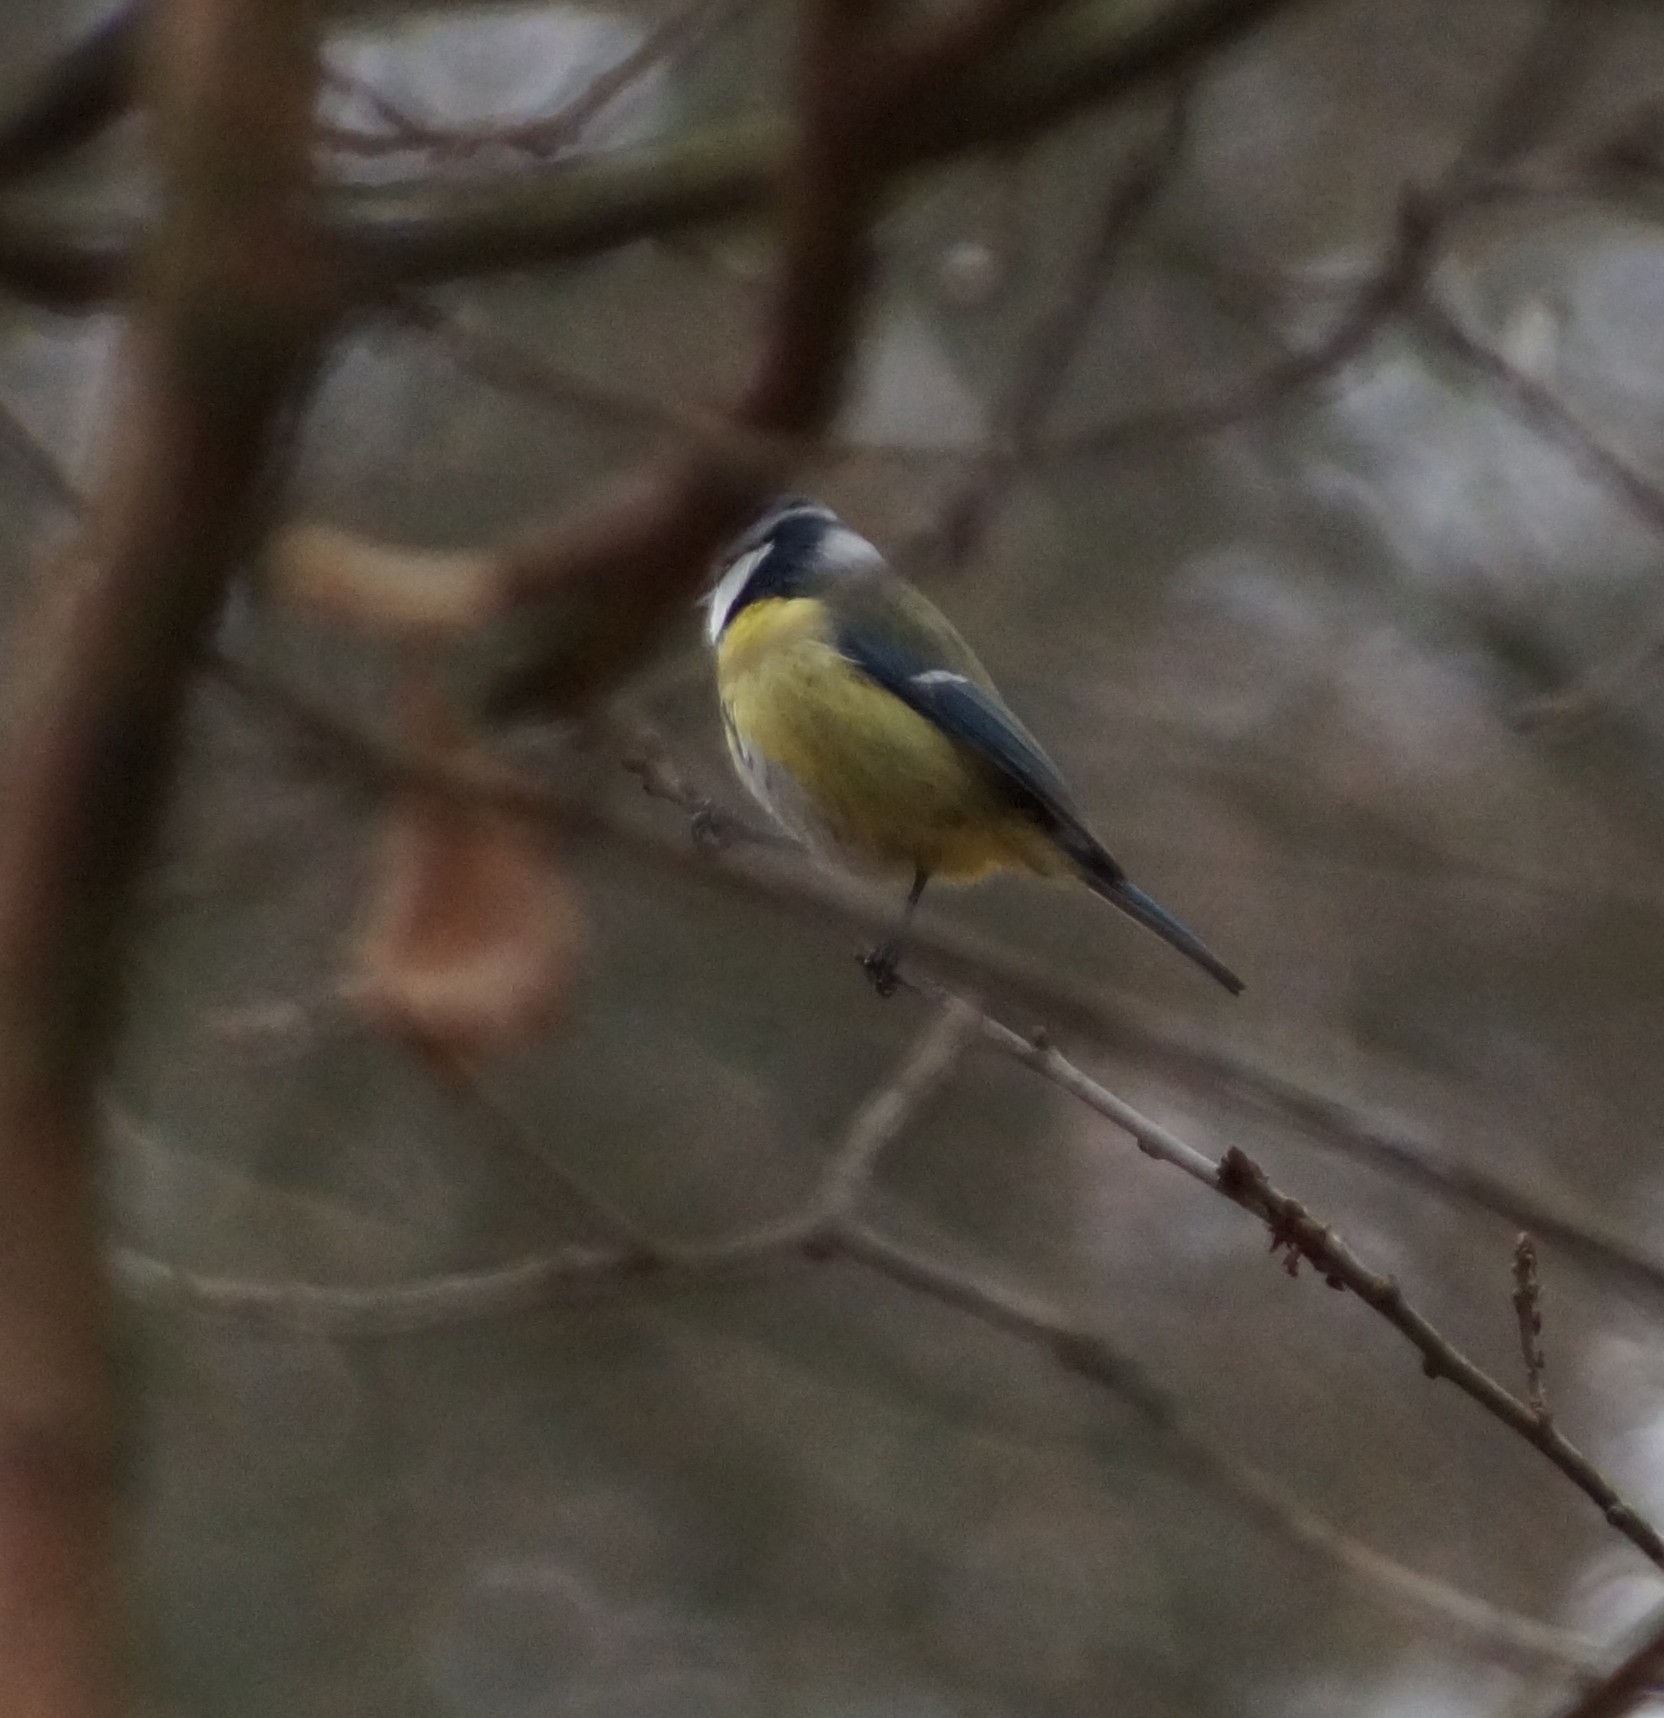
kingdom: Animalia
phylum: Chordata
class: Aves
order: Passeriformes
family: Paridae
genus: Cyanistes
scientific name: Cyanistes caeruleus
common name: Eurasian blue tit
